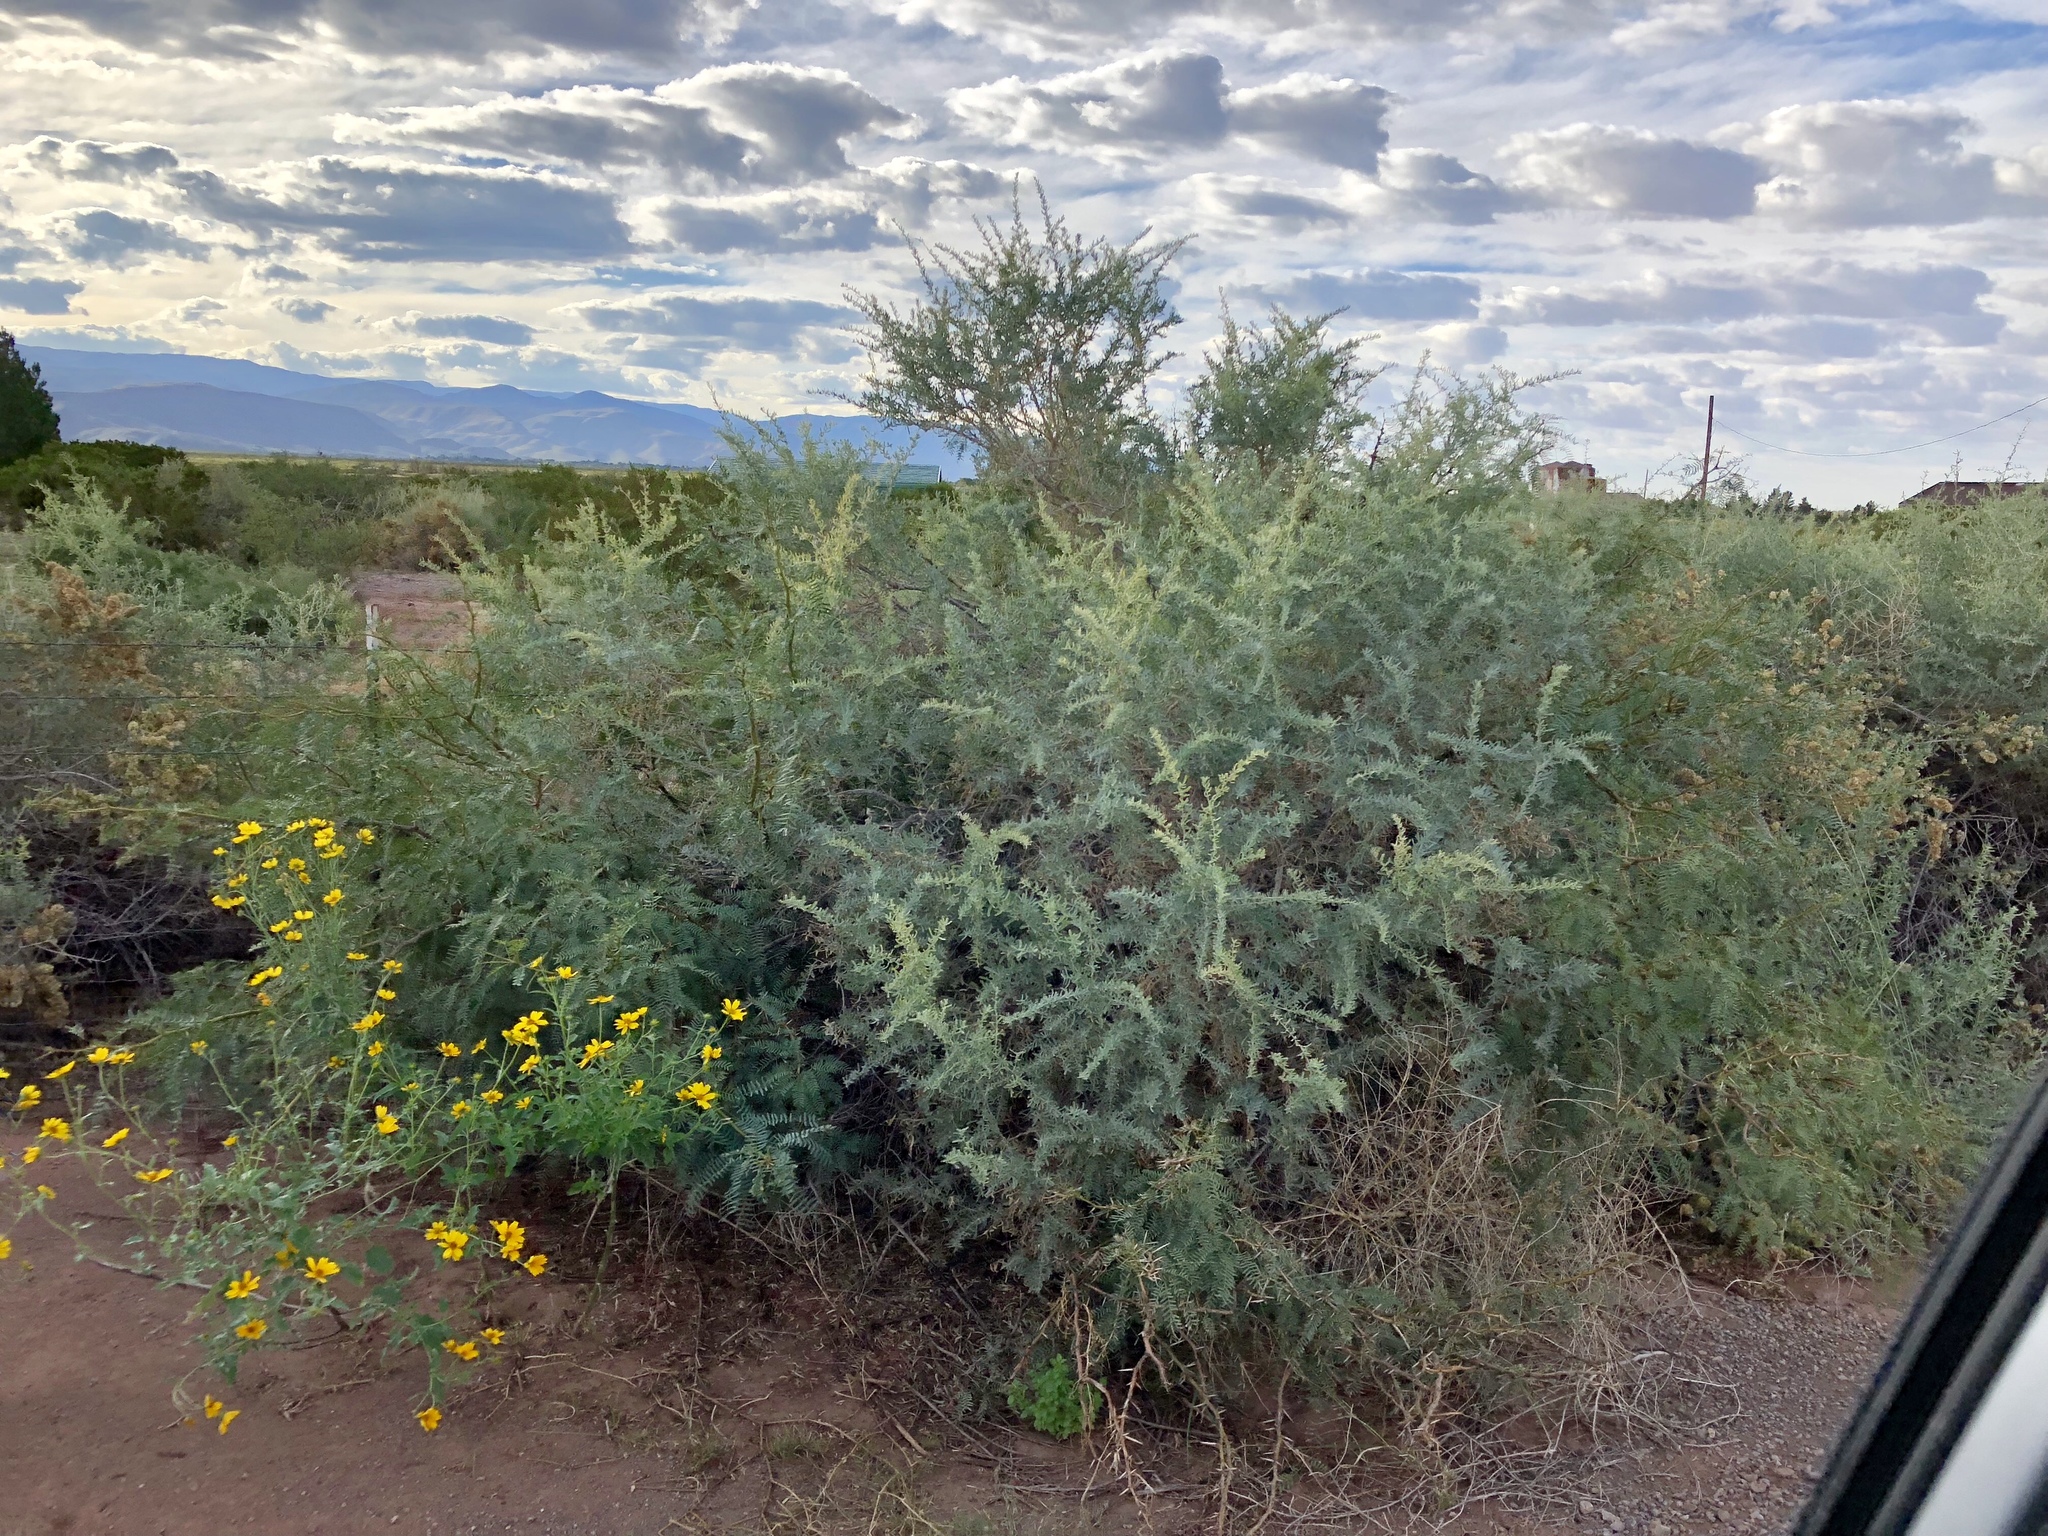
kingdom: Plantae
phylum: Tracheophyta
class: Magnoliopsida
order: Caryophyllales
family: Amaranthaceae
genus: Atriplex
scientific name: Atriplex canescens
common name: Four-wing saltbush
